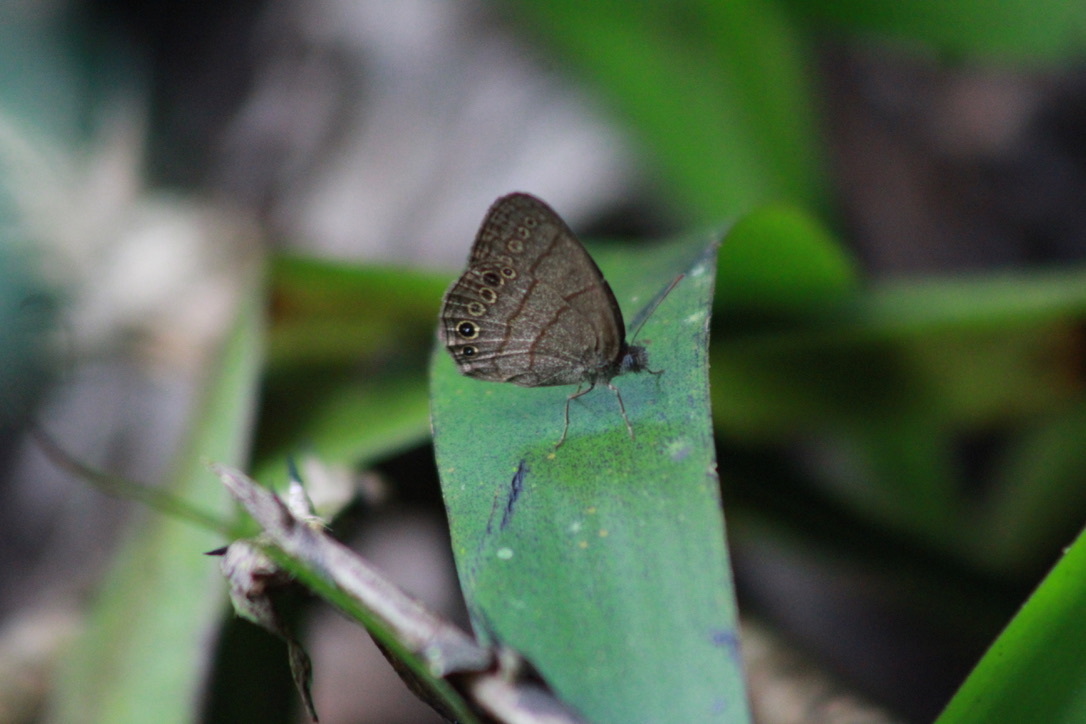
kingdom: Animalia
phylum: Arthropoda
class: Insecta
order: Lepidoptera
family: Nymphalidae
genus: Hermeuptychia
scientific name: Hermeuptychia canthe
